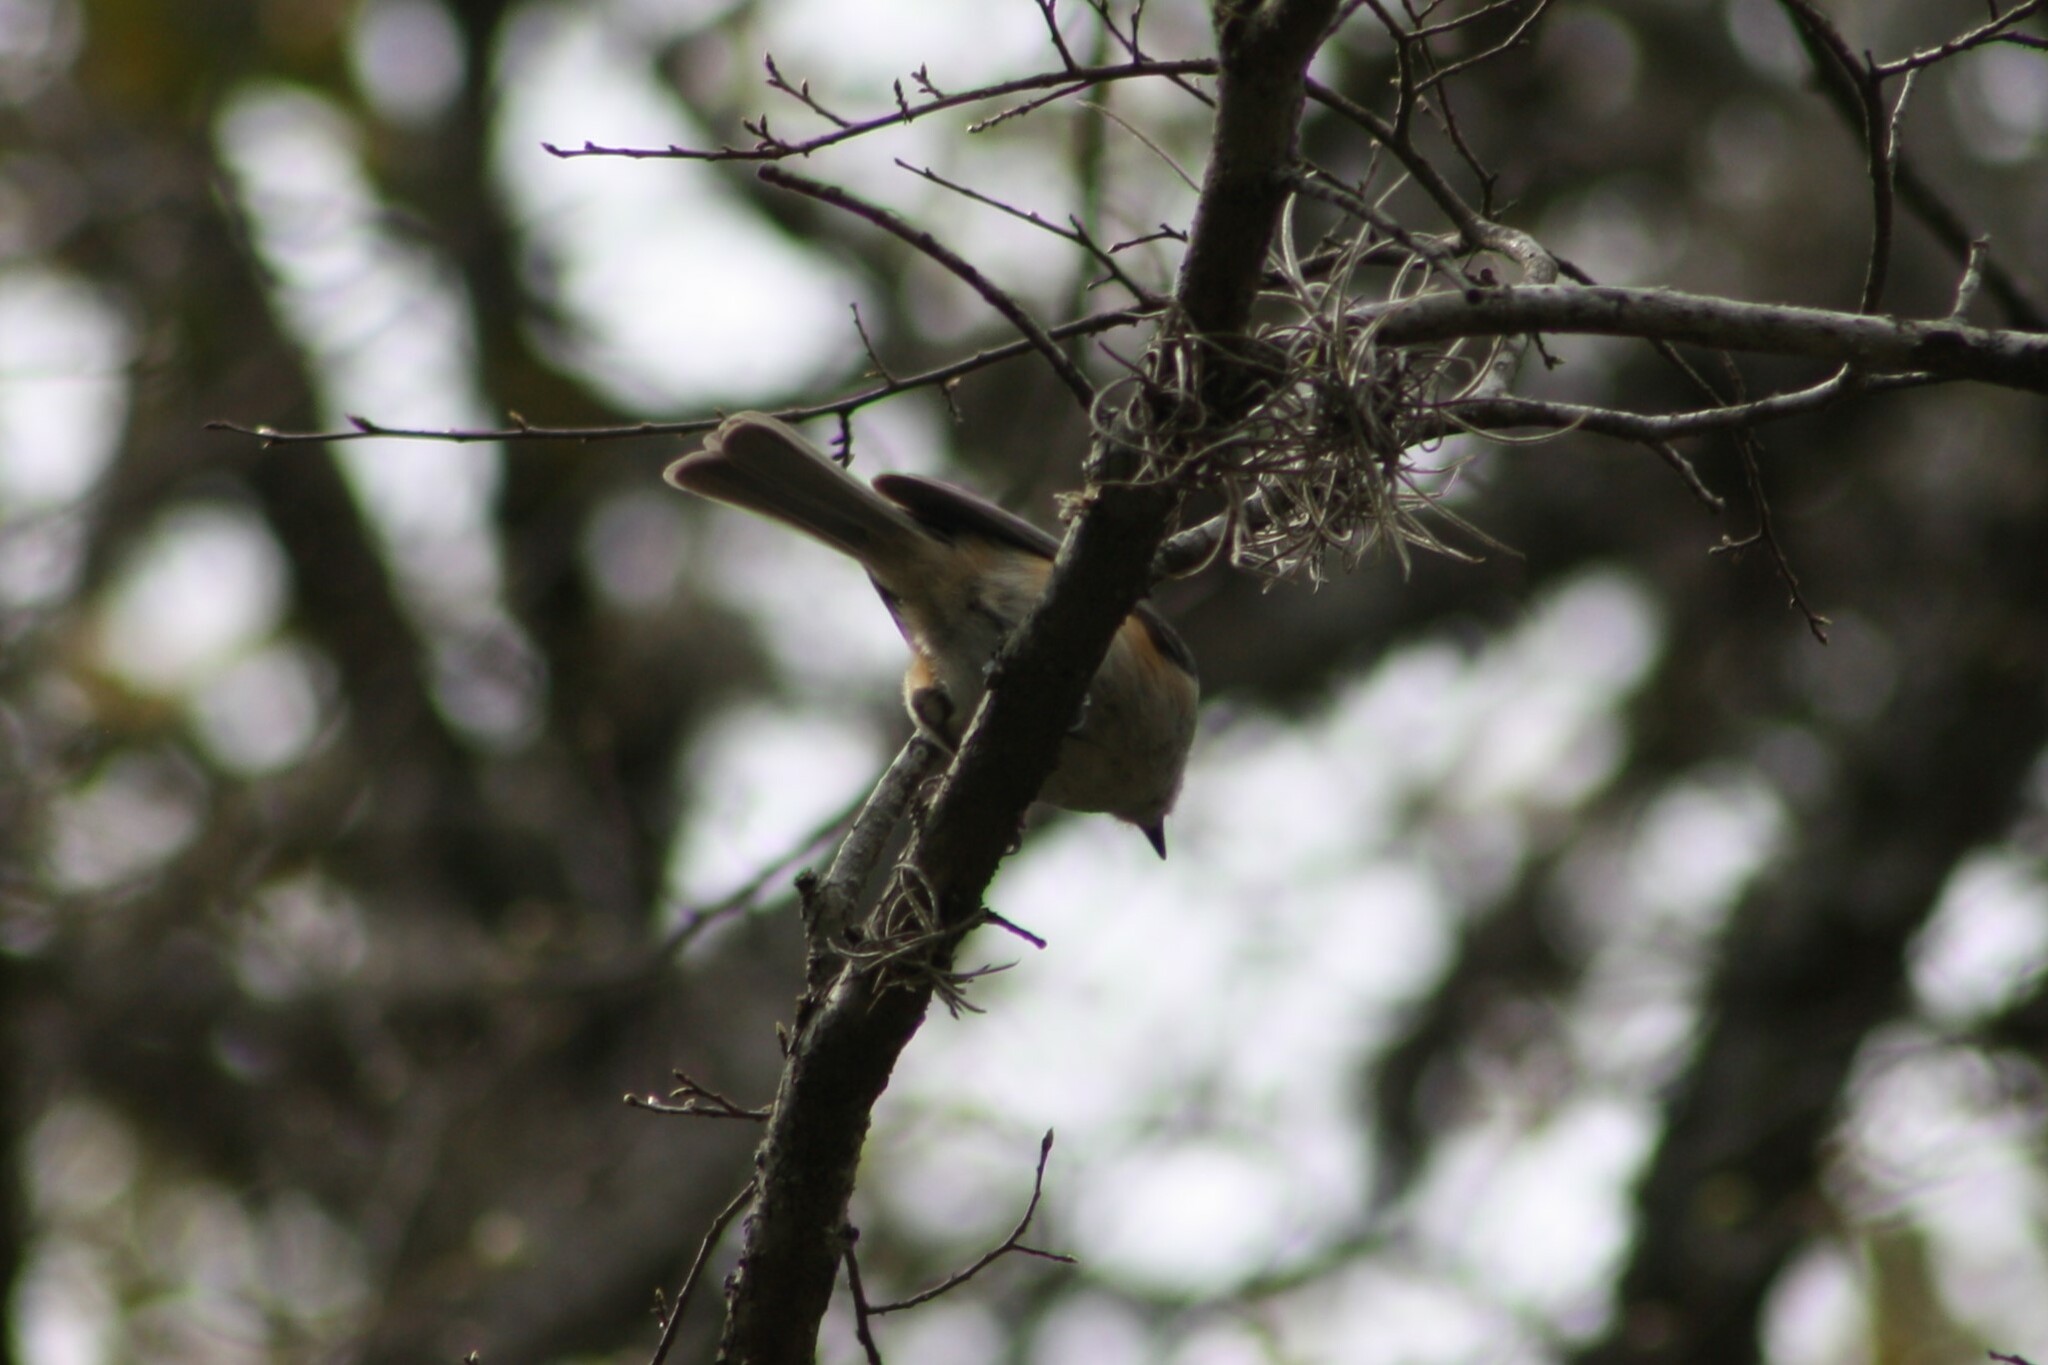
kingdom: Animalia
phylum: Chordata
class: Aves
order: Passeriformes
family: Paridae
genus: Baeolophus
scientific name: Baeolophus atricristatus
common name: Black-crested titmouse
